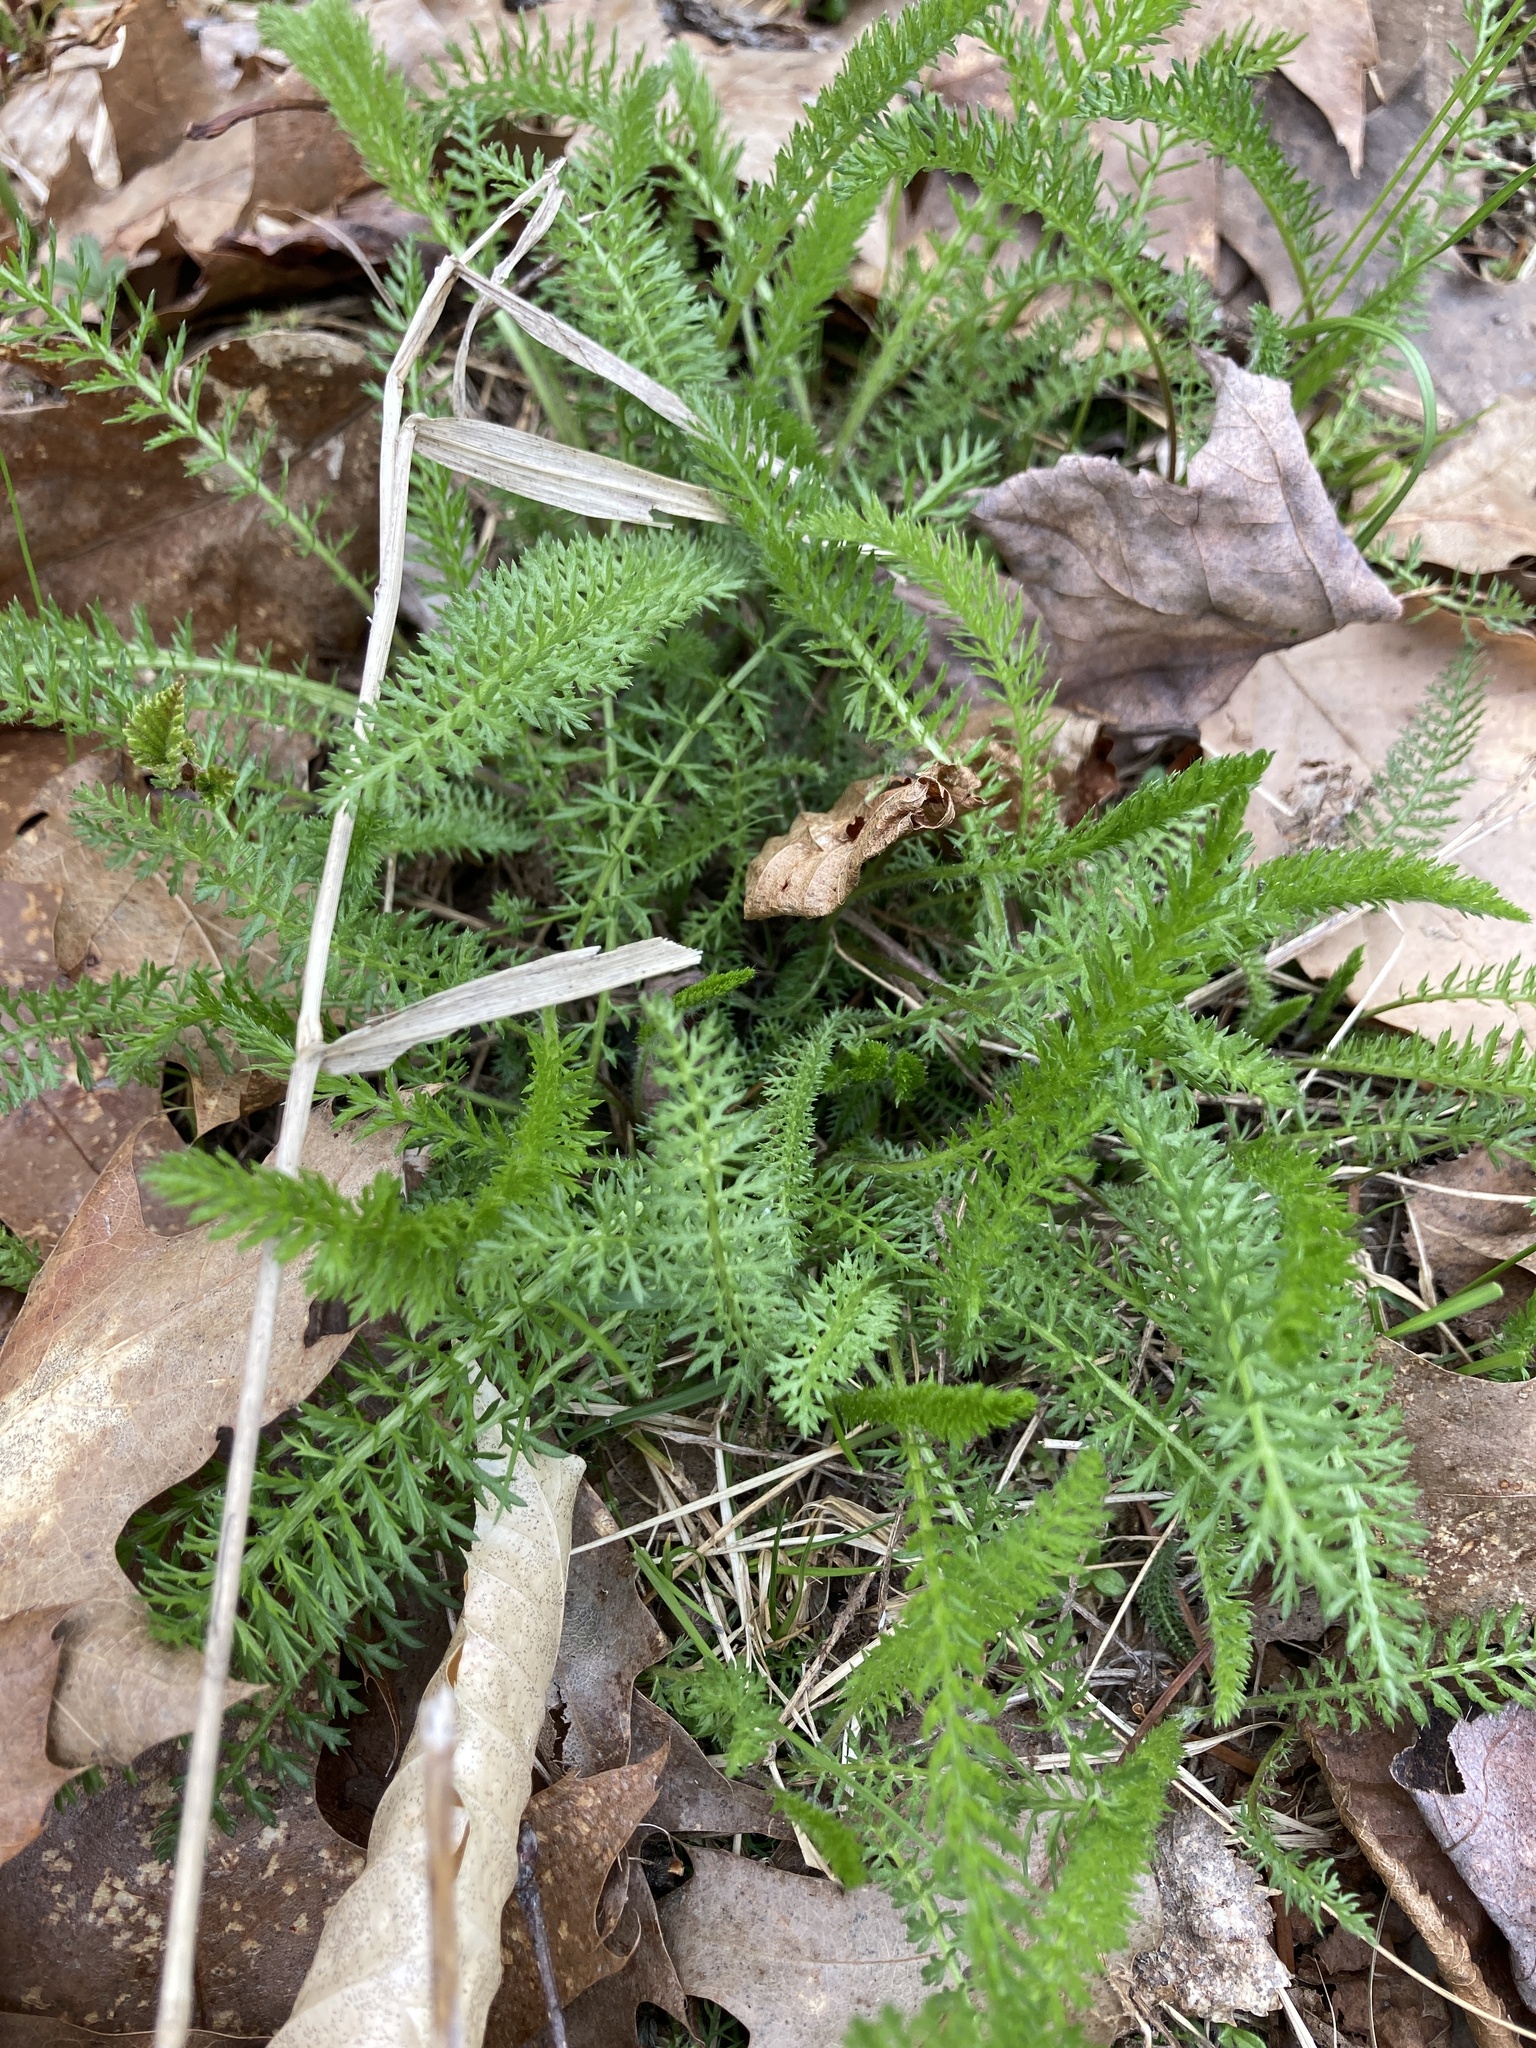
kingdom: Plantae
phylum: Tracheophyta
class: Magnoliopsida
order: Asterales
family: Asteraceae
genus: Achillea
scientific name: Achillea millefolium
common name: Yarrow
